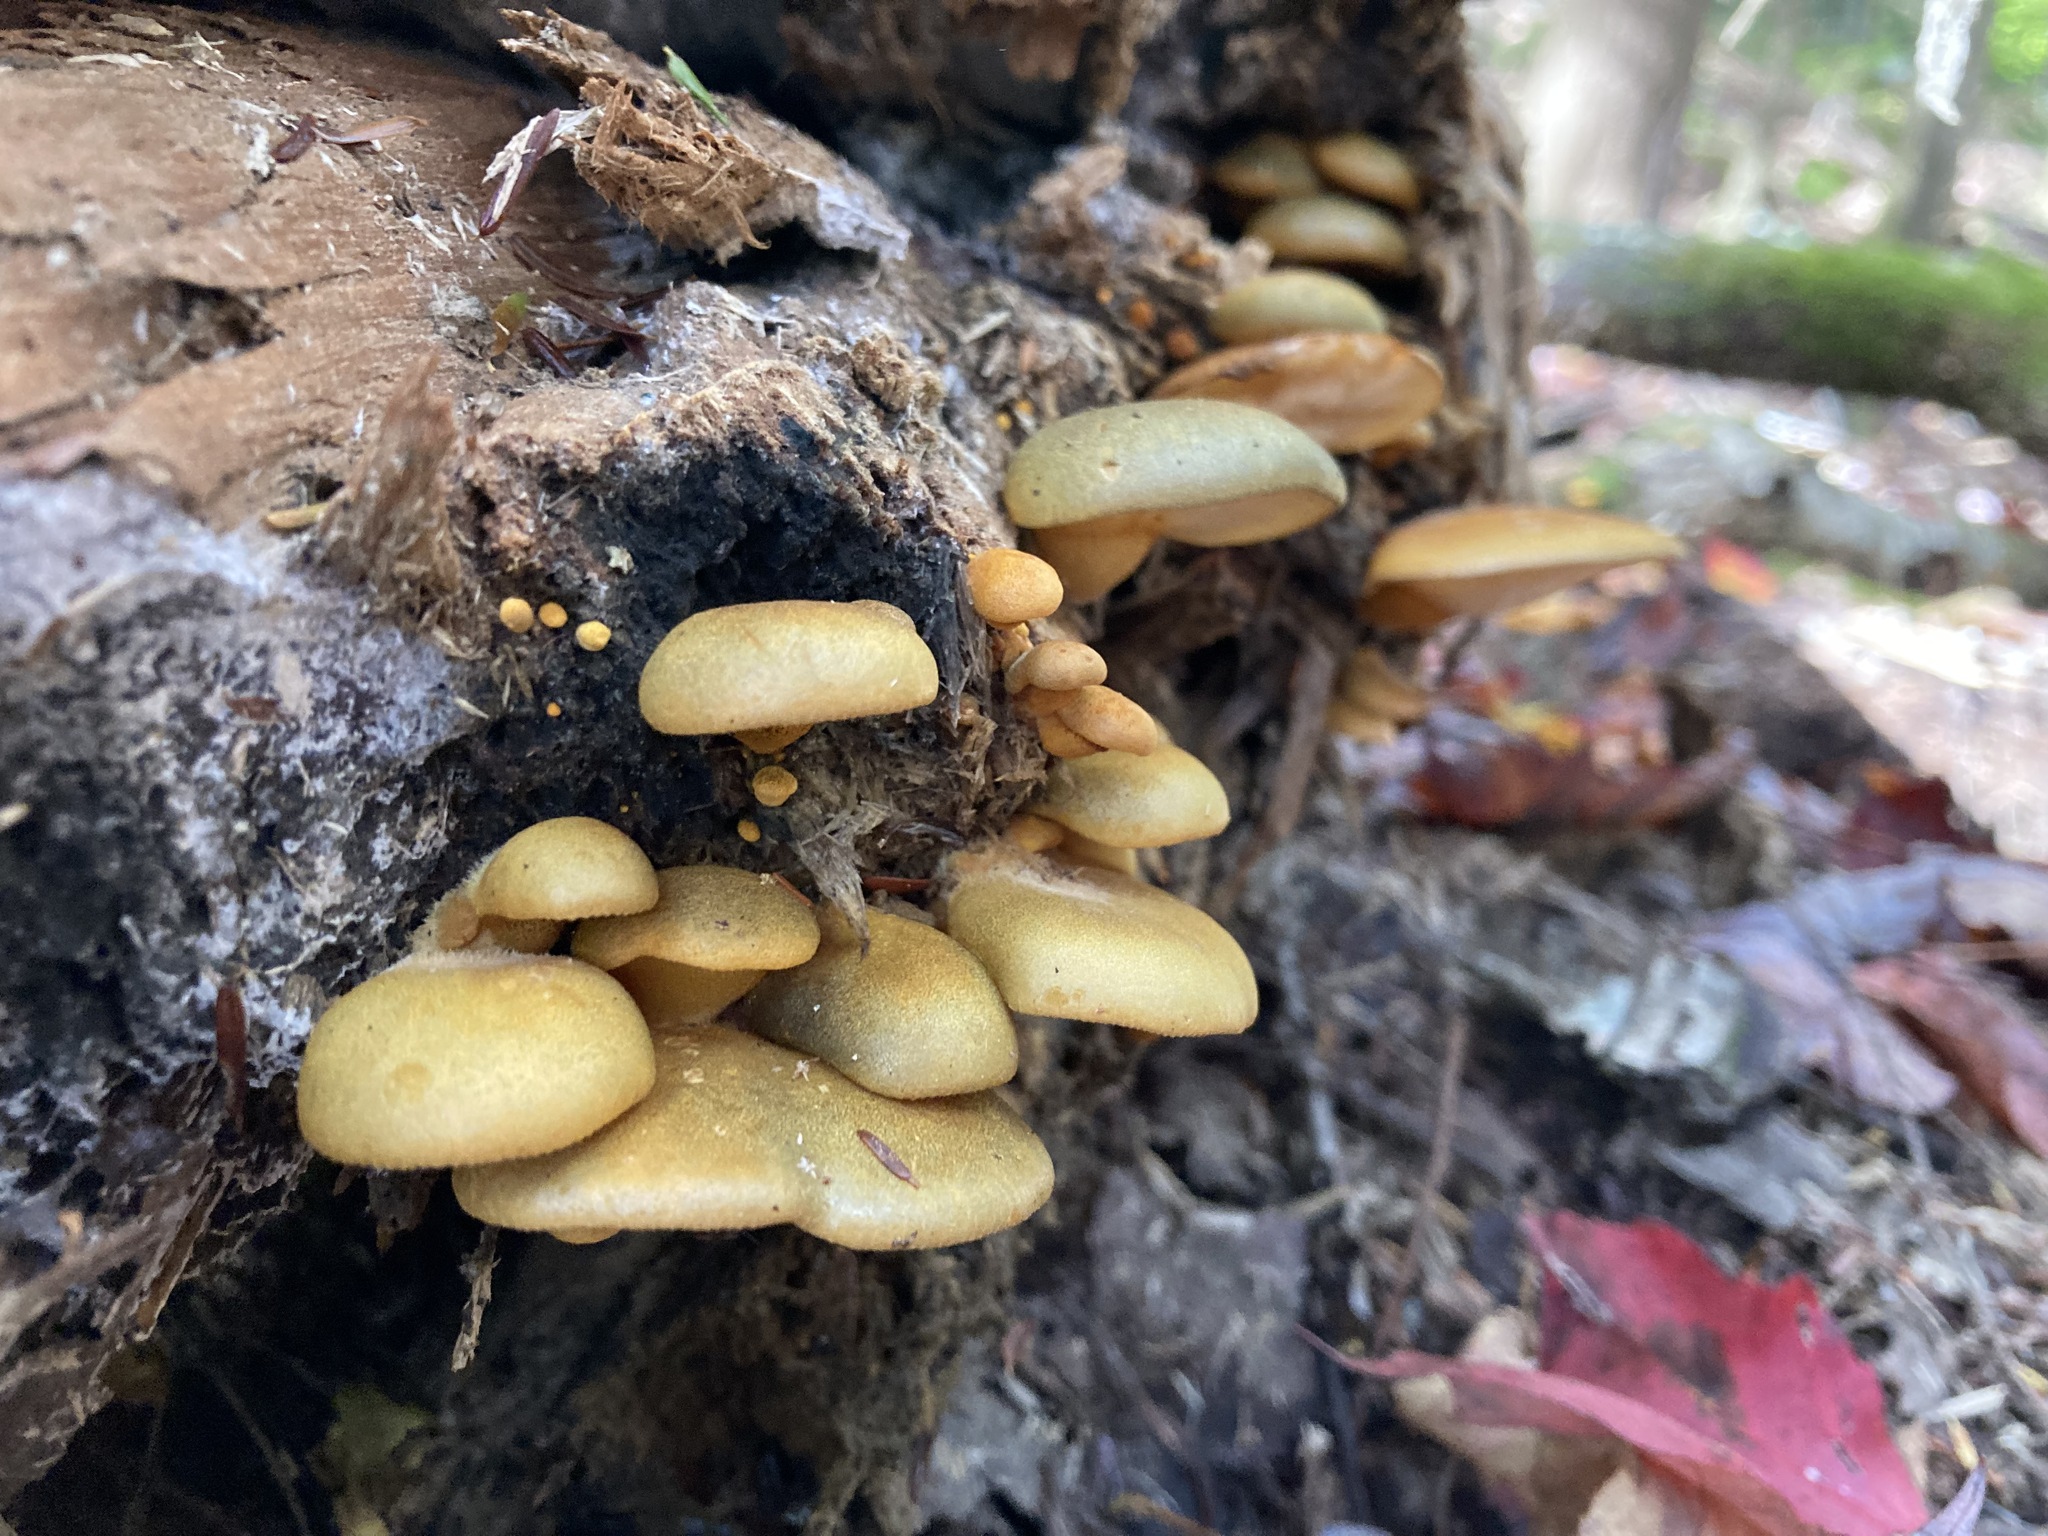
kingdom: Fungi
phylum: Basidiomycota
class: Agaricomycetes
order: Agaricales
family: Sarcomyxaceae
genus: Sarcomyxa
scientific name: Sarcomyxa serotina
